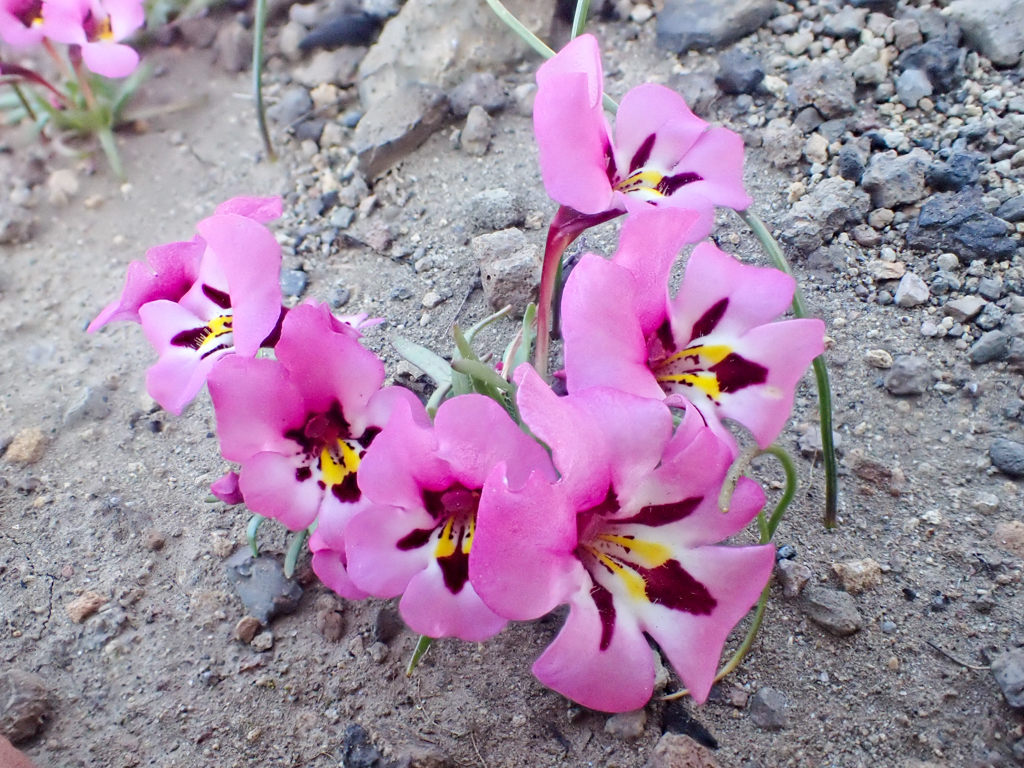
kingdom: Plantae
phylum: Tracheophyta
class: Magnoliopsida
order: Lamiales
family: Phrymaceae
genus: Diplacus
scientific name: Diplacus angustatus
